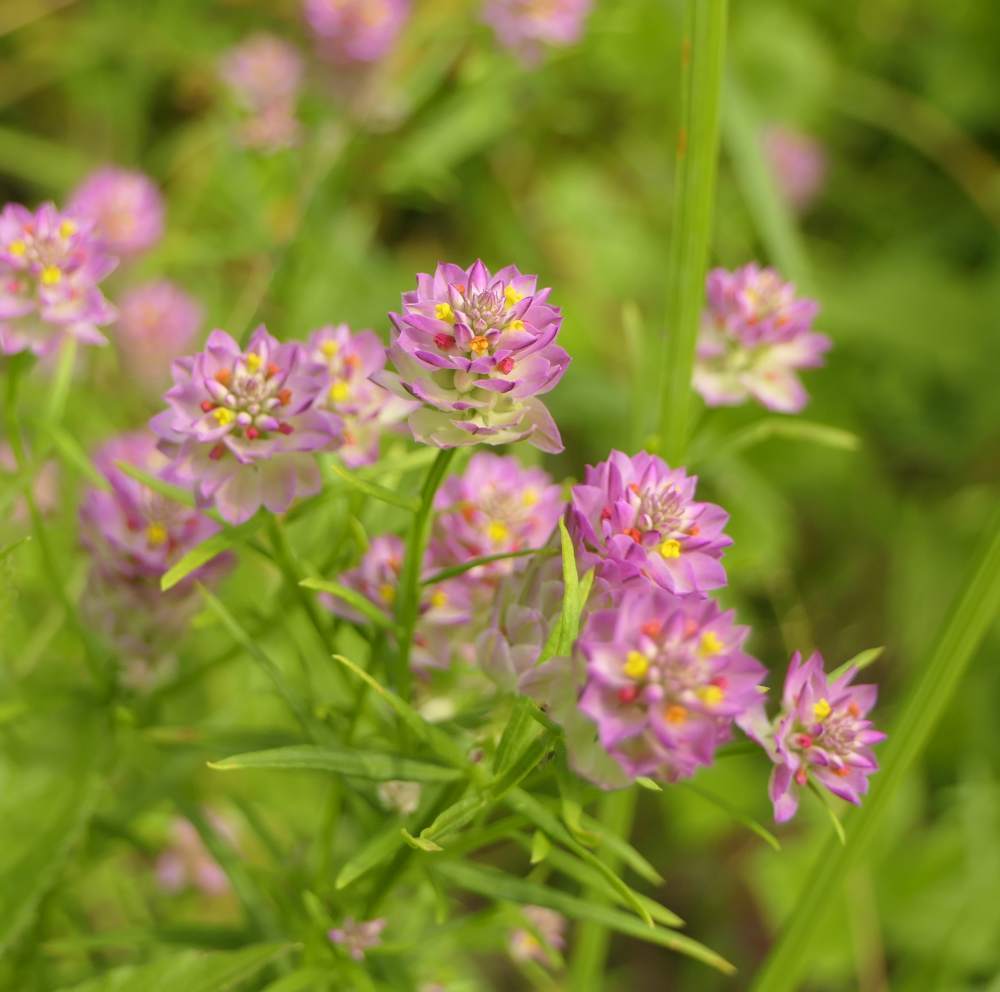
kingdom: Plantae
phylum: Tracheophyta
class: Magnoliopsida
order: Fabales
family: Polygalaceae
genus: Polygala
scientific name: Polygala sanguinea
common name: Blood milkwort
